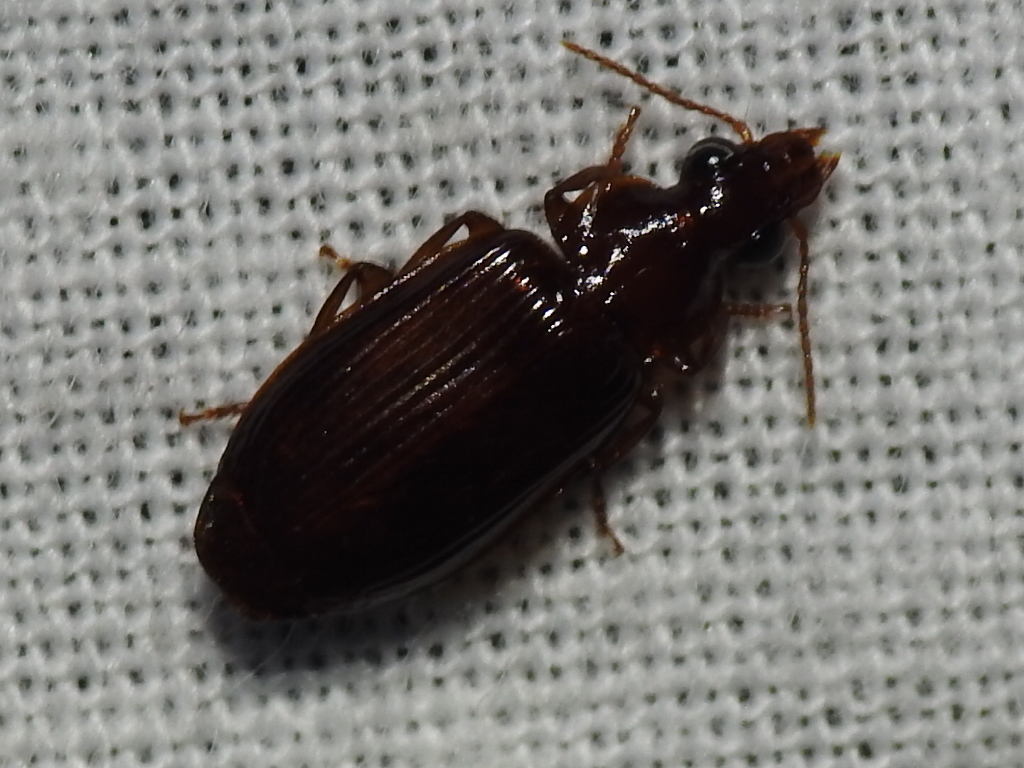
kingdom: Animalia
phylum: Arthropoda
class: Insecta
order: Coleoptera
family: Carabidae
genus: Plochionus
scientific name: Plochionus timidus
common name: Timid harp ground beetle
